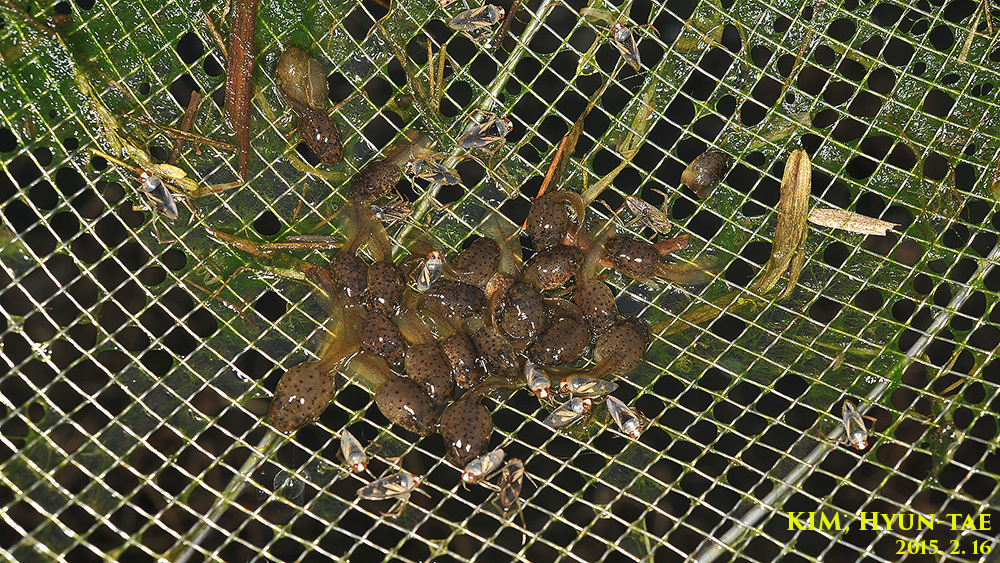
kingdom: Animalia
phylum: Chordata
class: Amphibia
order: Anura
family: Ranidae
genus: Lithobates
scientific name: Lithobates catesbeianus
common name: American bullfrog
